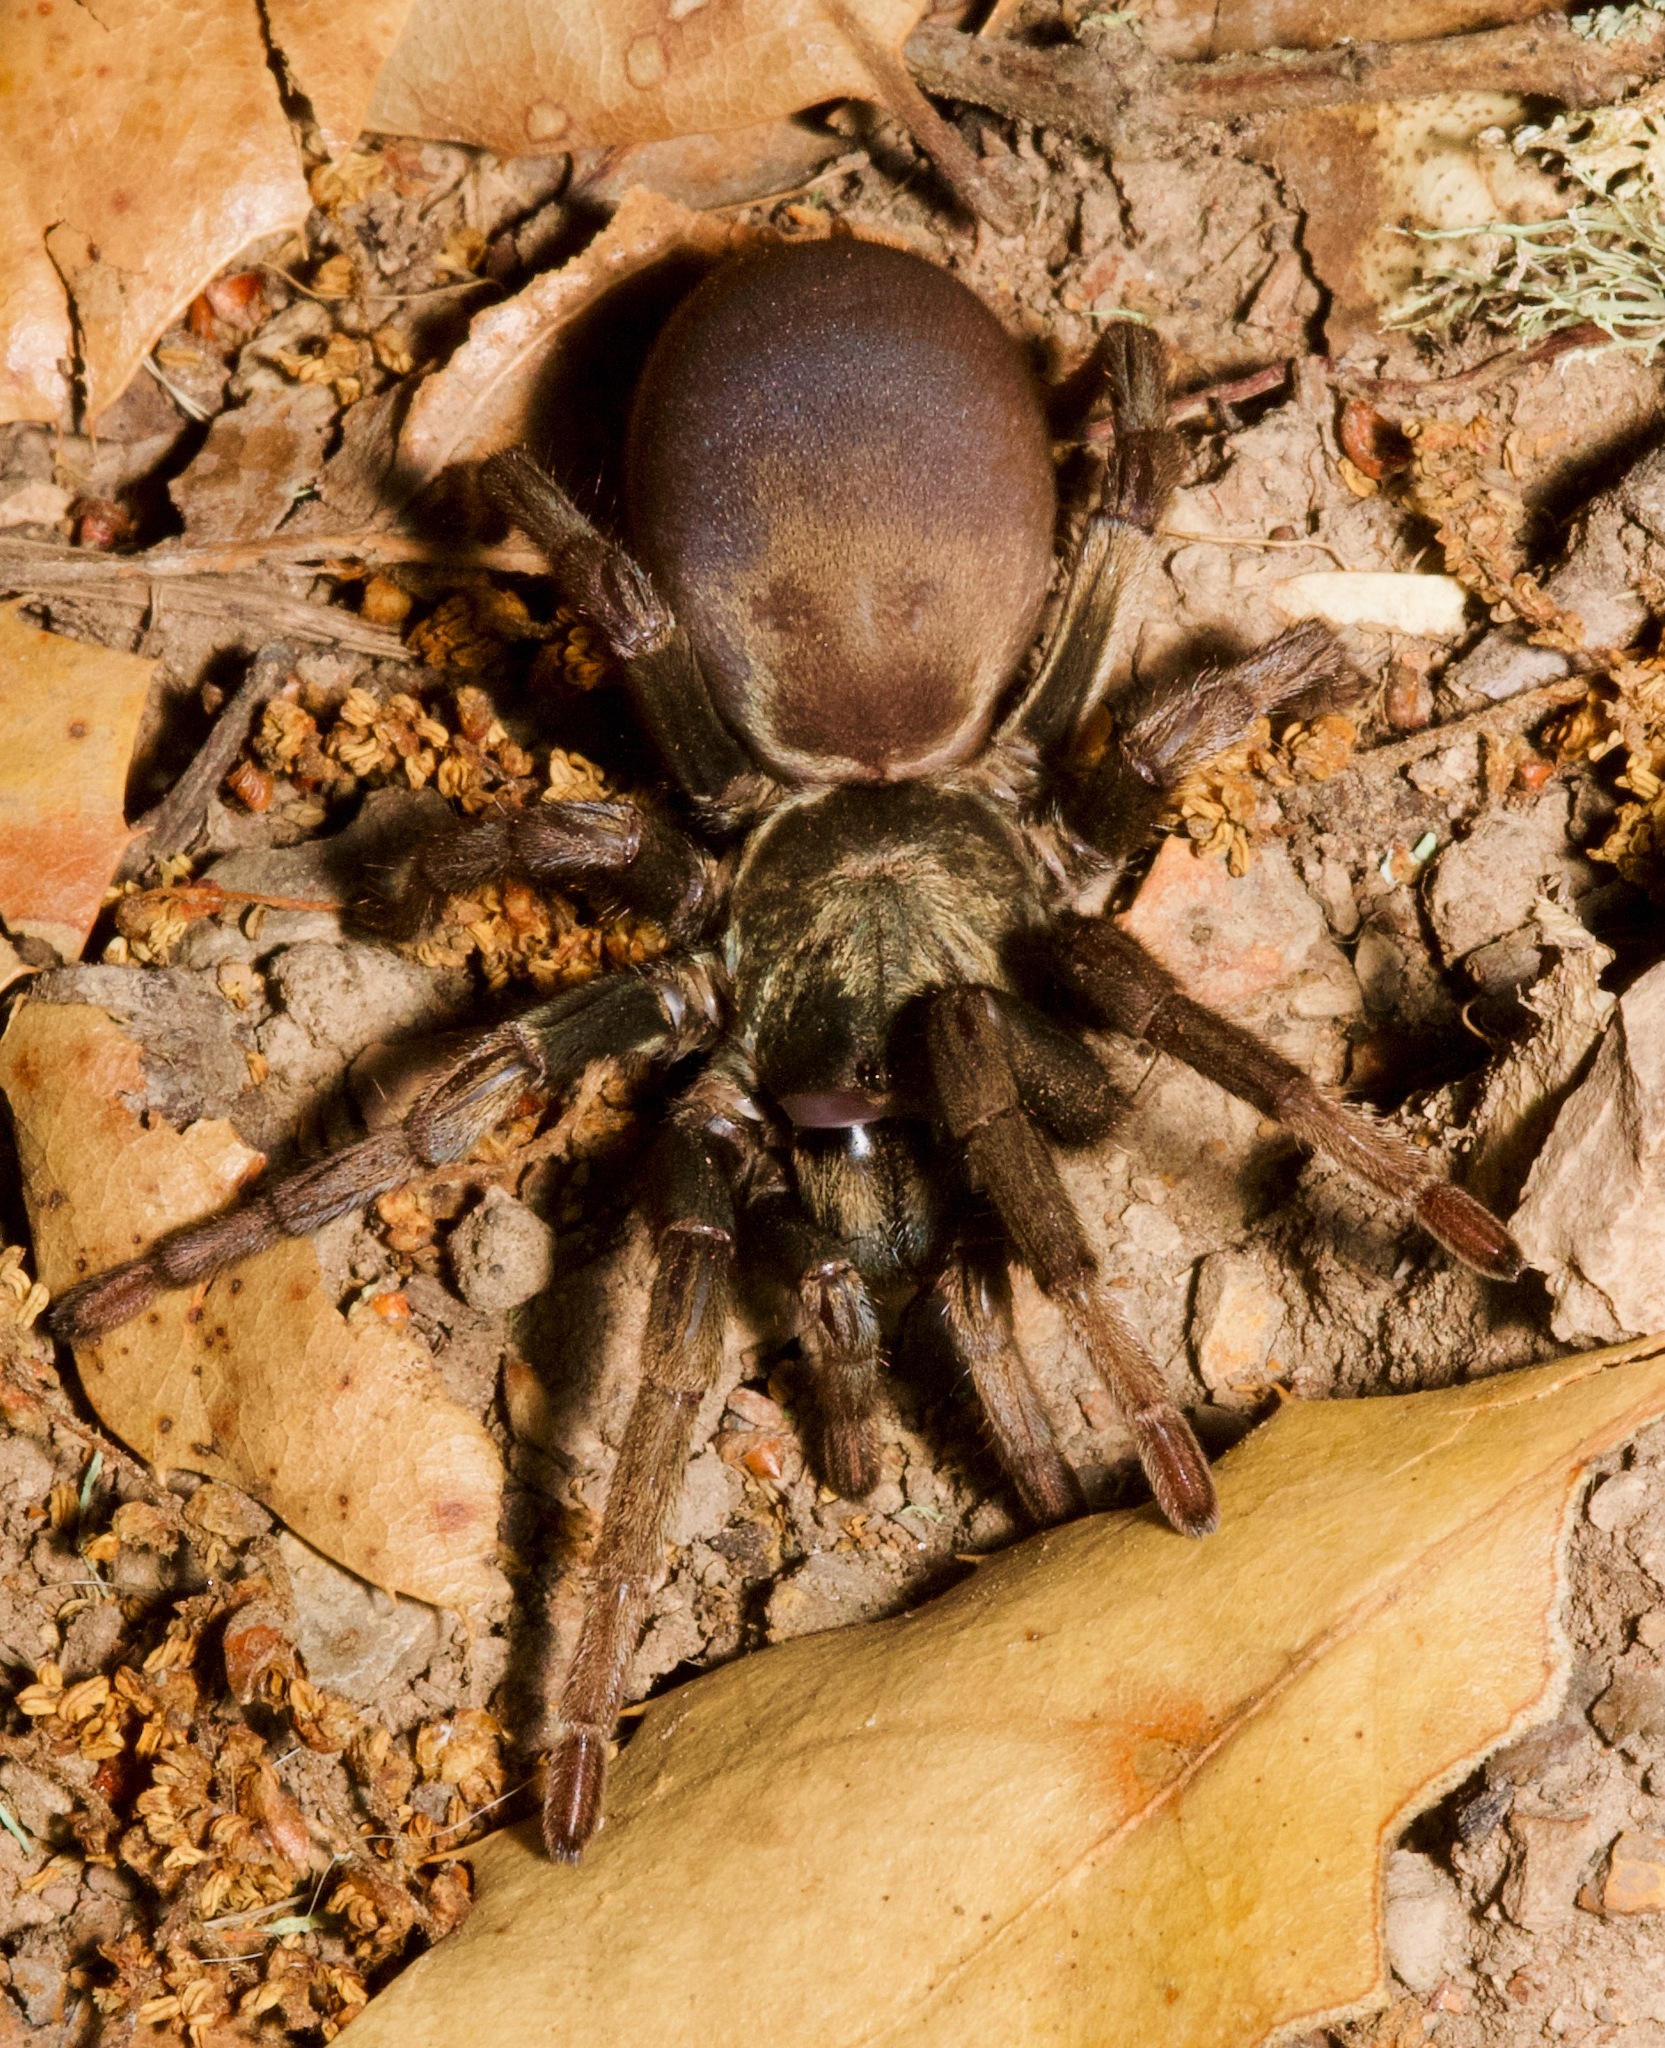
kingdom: Animalia
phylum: Arthropoda
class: Arachnida
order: Araneae
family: Nemesiidae
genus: Calisoga
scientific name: Calisoga longitarsis
